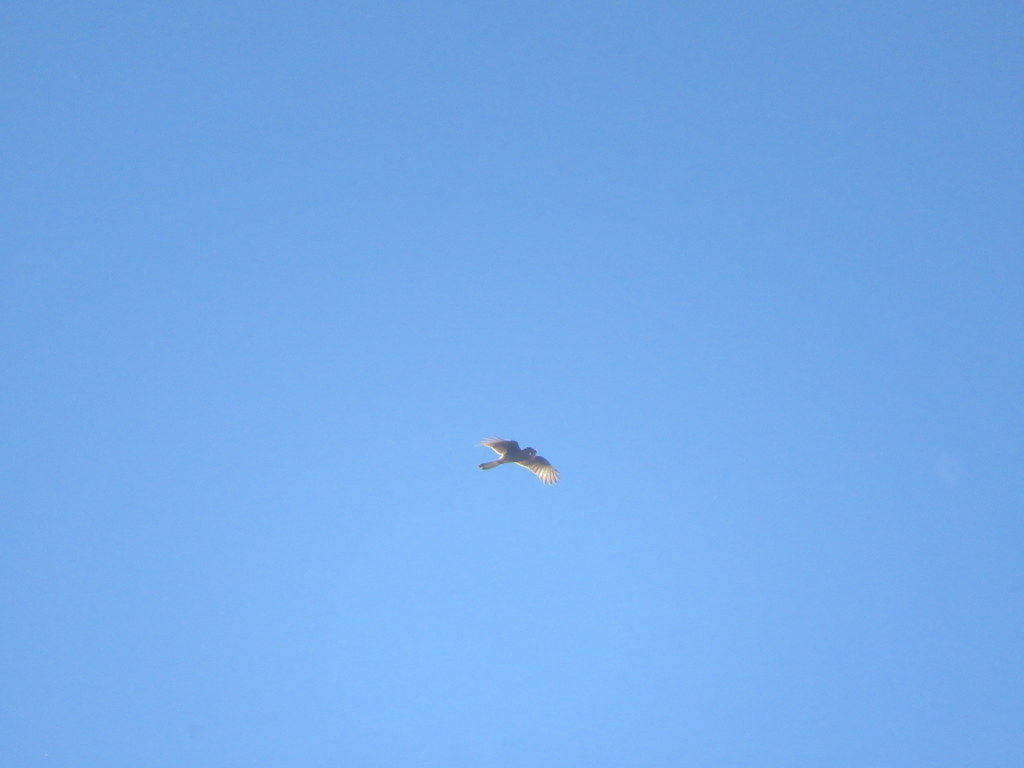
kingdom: Animalia
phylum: Chordata
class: Aves
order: Falconiformes
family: Falconidae
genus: Daptrius
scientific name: Daptrius
